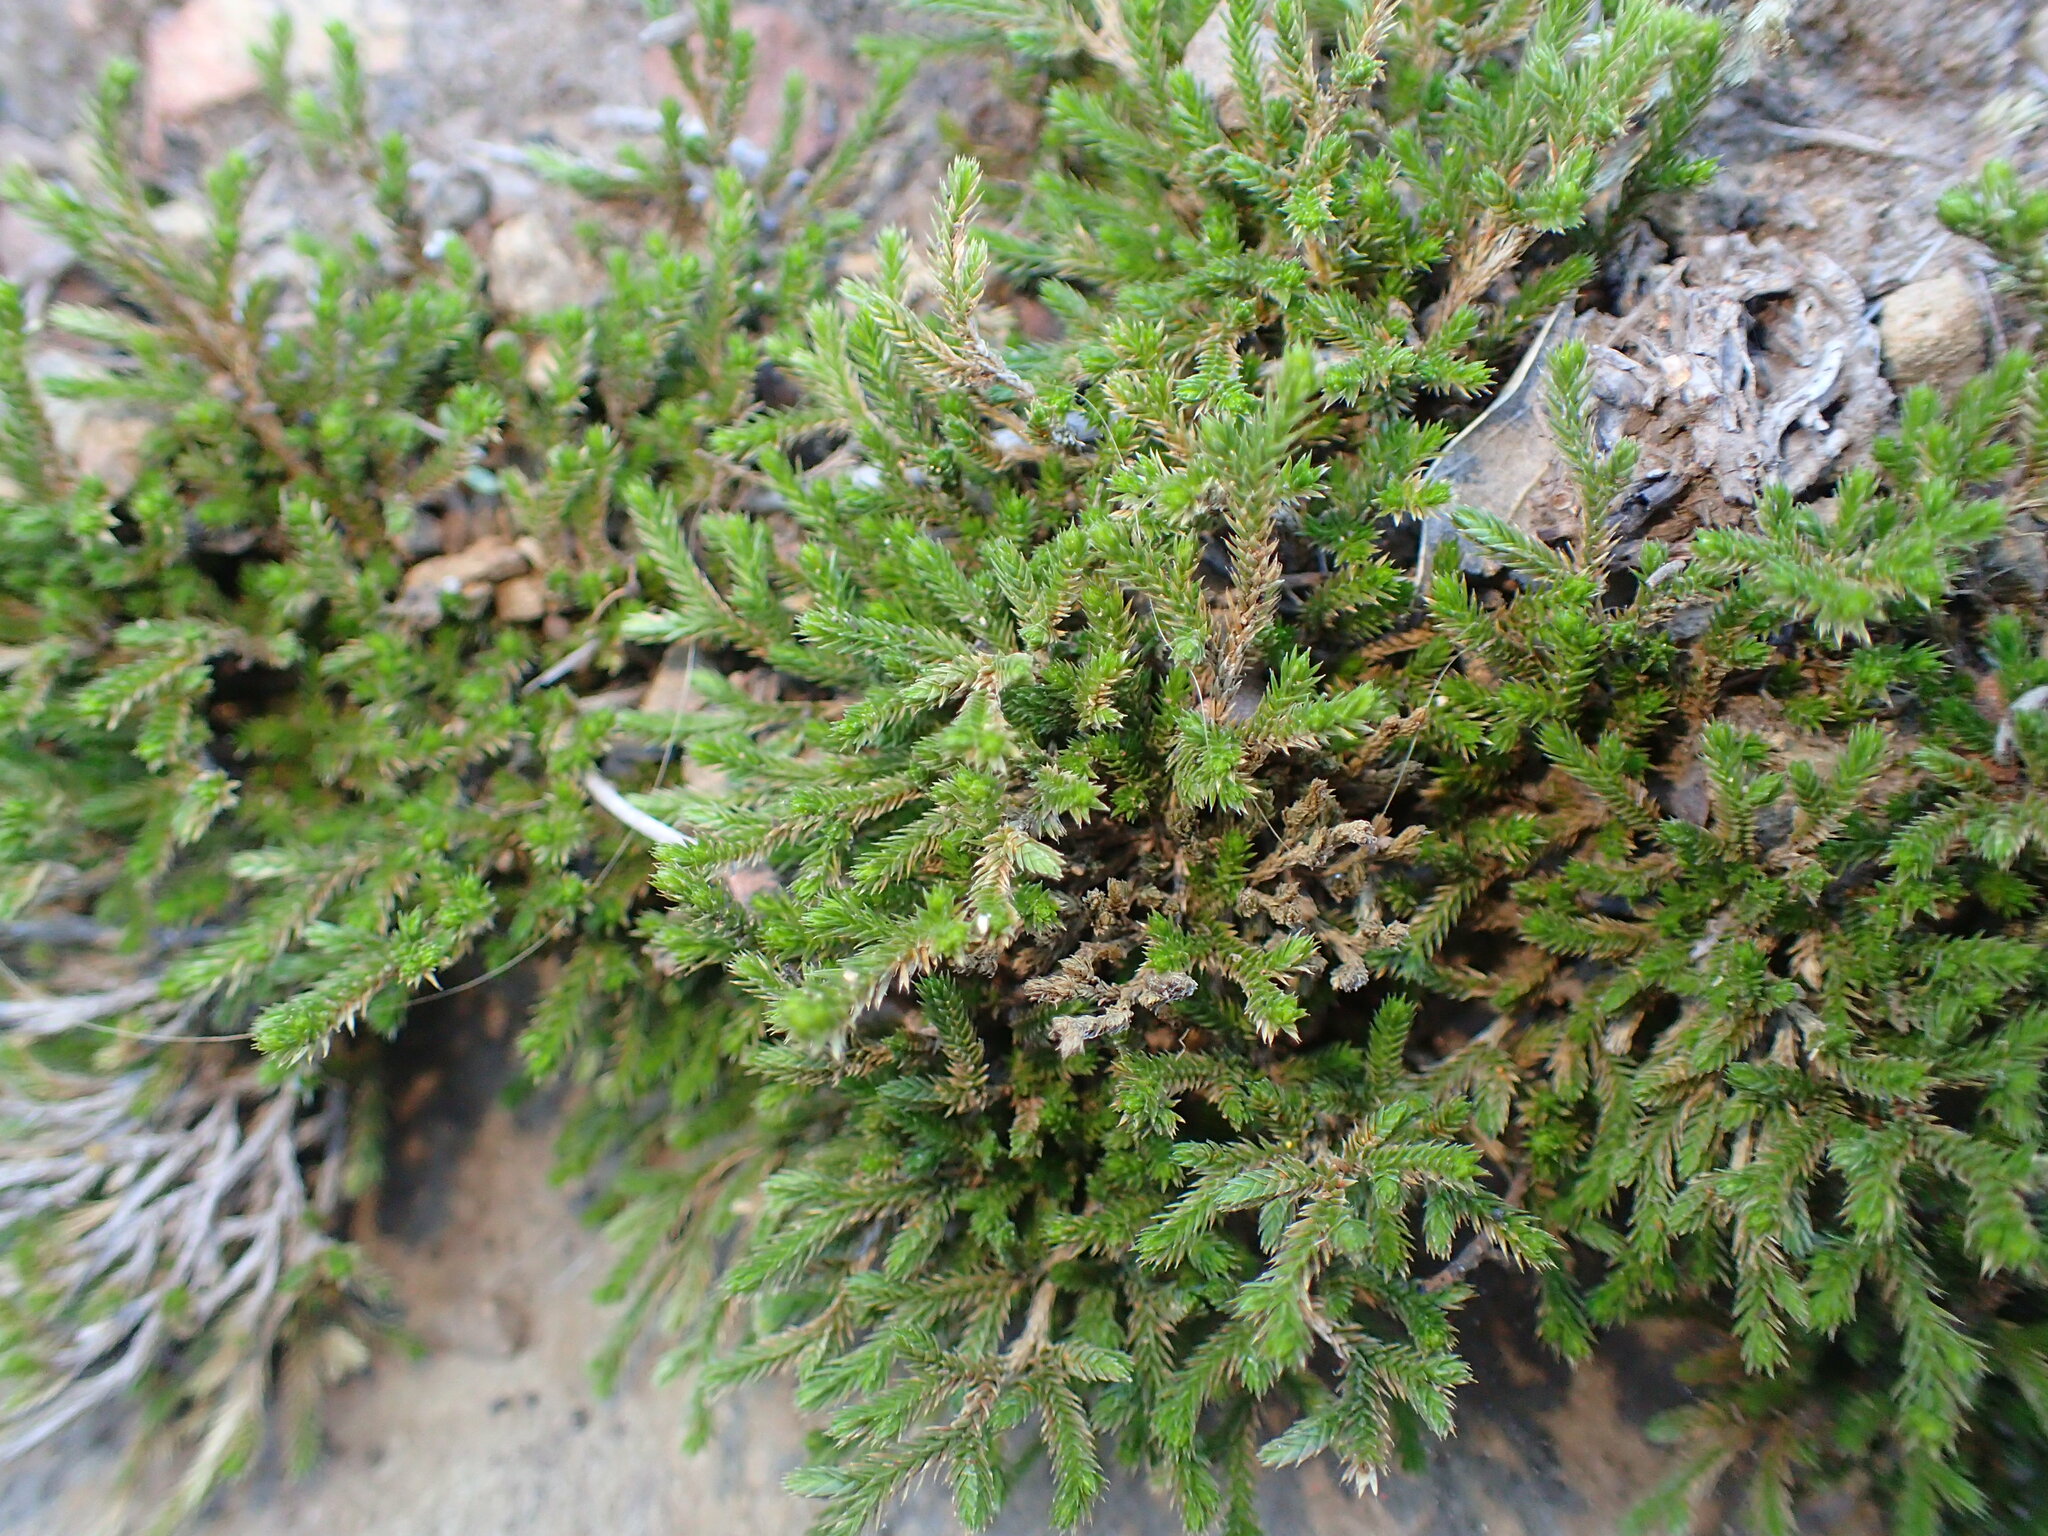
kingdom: Plantae
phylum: Tracheophyta
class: Lycopodiopsida
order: Selaginellales
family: Selaginellaceae
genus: Selaginella
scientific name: Selaginella bigelovii
